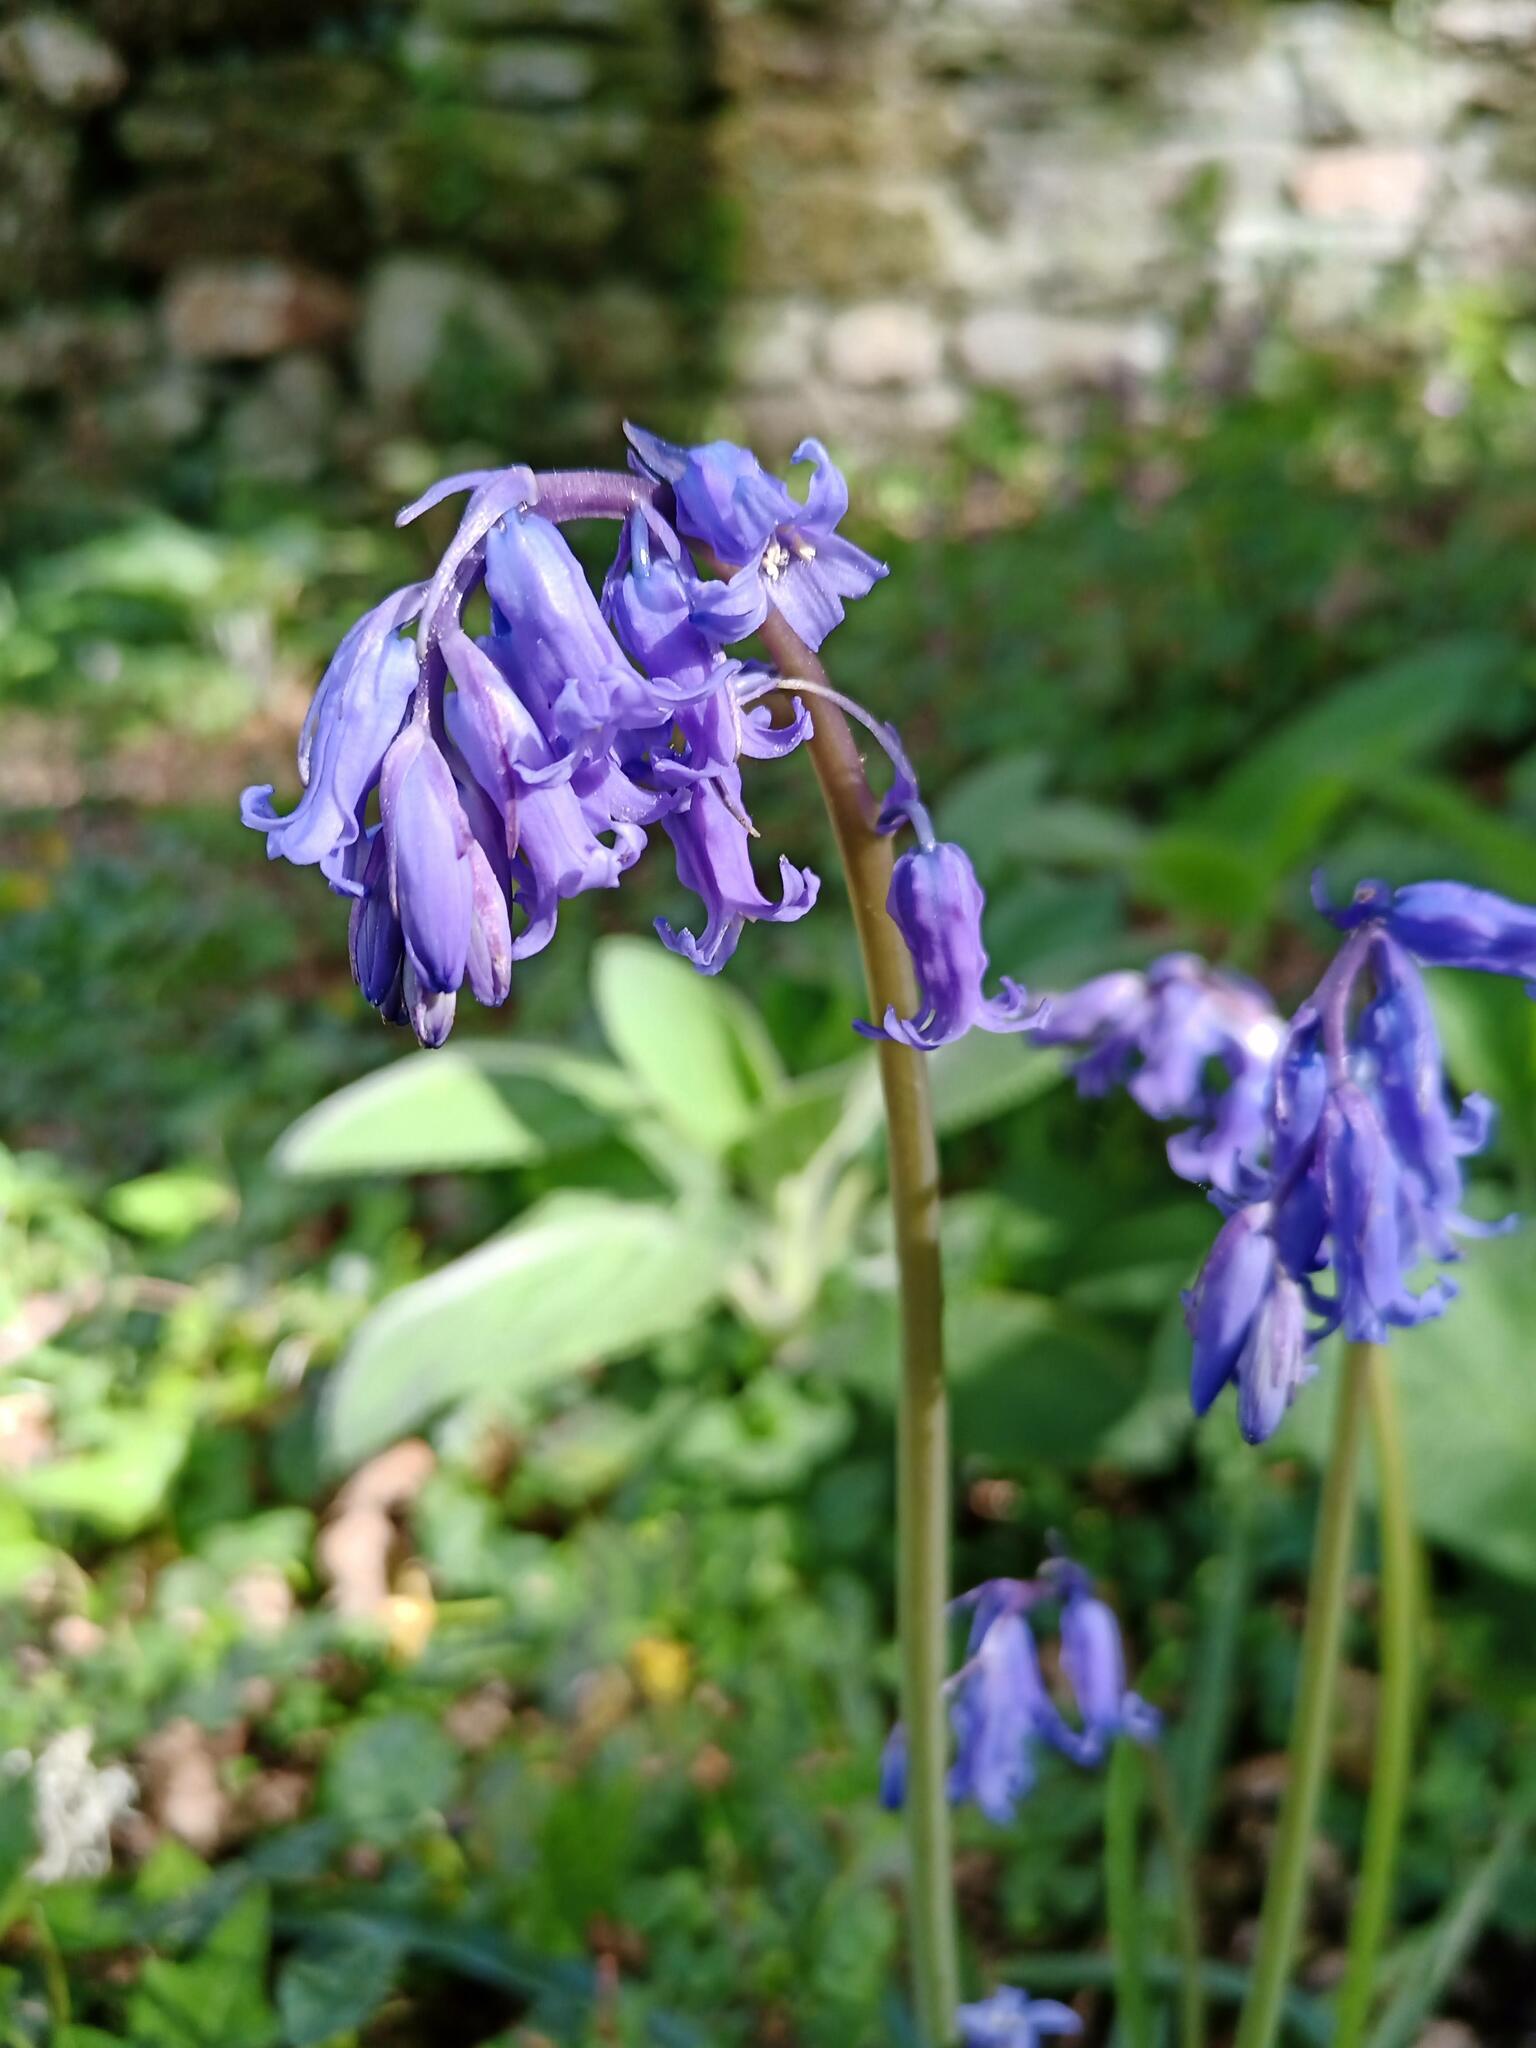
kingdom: Plantae
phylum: Tracheophyta
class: Liliopsida
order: Asparagales
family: Asparagaceae
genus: Hyacinthoides
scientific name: Hyacinthoides non-scripta
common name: Bluebell
